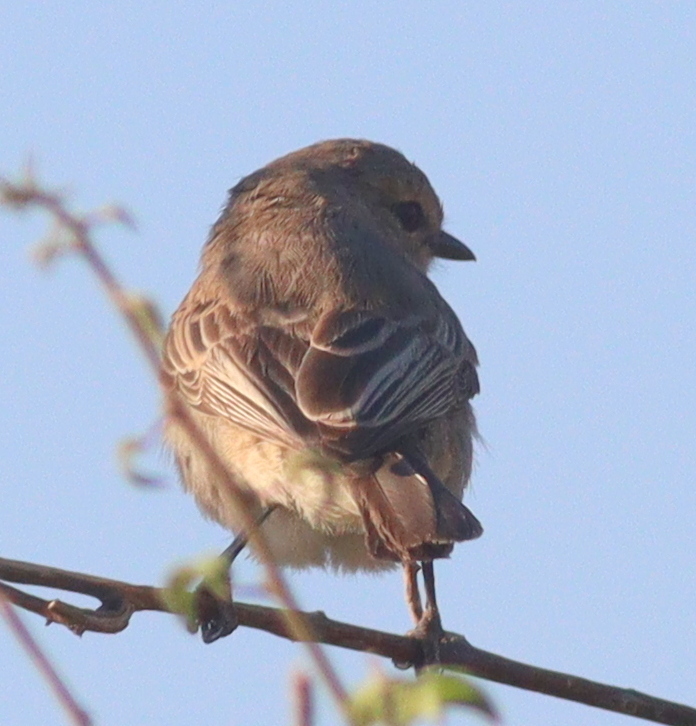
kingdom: Animalia
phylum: Chordata
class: Aves
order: Passeriformes
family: Muscicapidae
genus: Bradornis
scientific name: Bradornis microrhynchus
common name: African grey flycatcher
